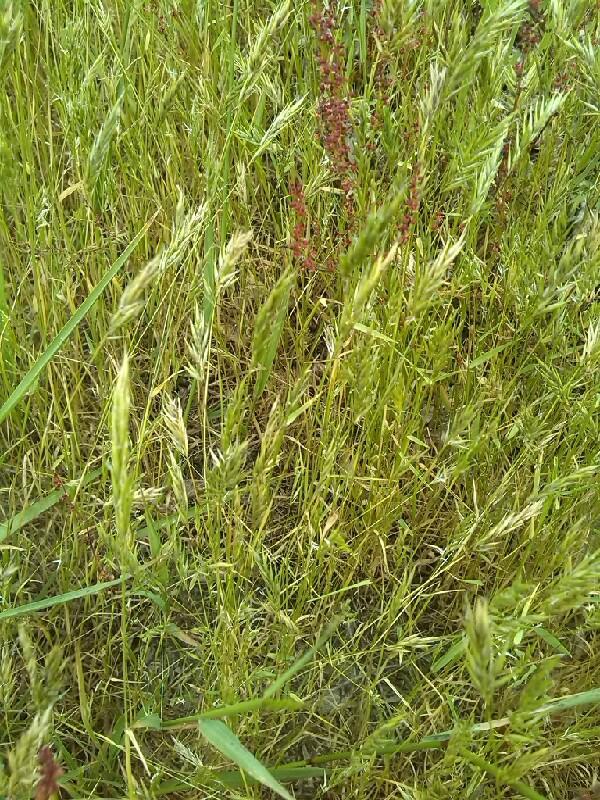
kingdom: Plantae
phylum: Tracheophyta
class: Liliopsida
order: Poales
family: Poaceae
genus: Anthoxanthum
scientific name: Anthoxanthum aristatum
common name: Annual vernal-grass
